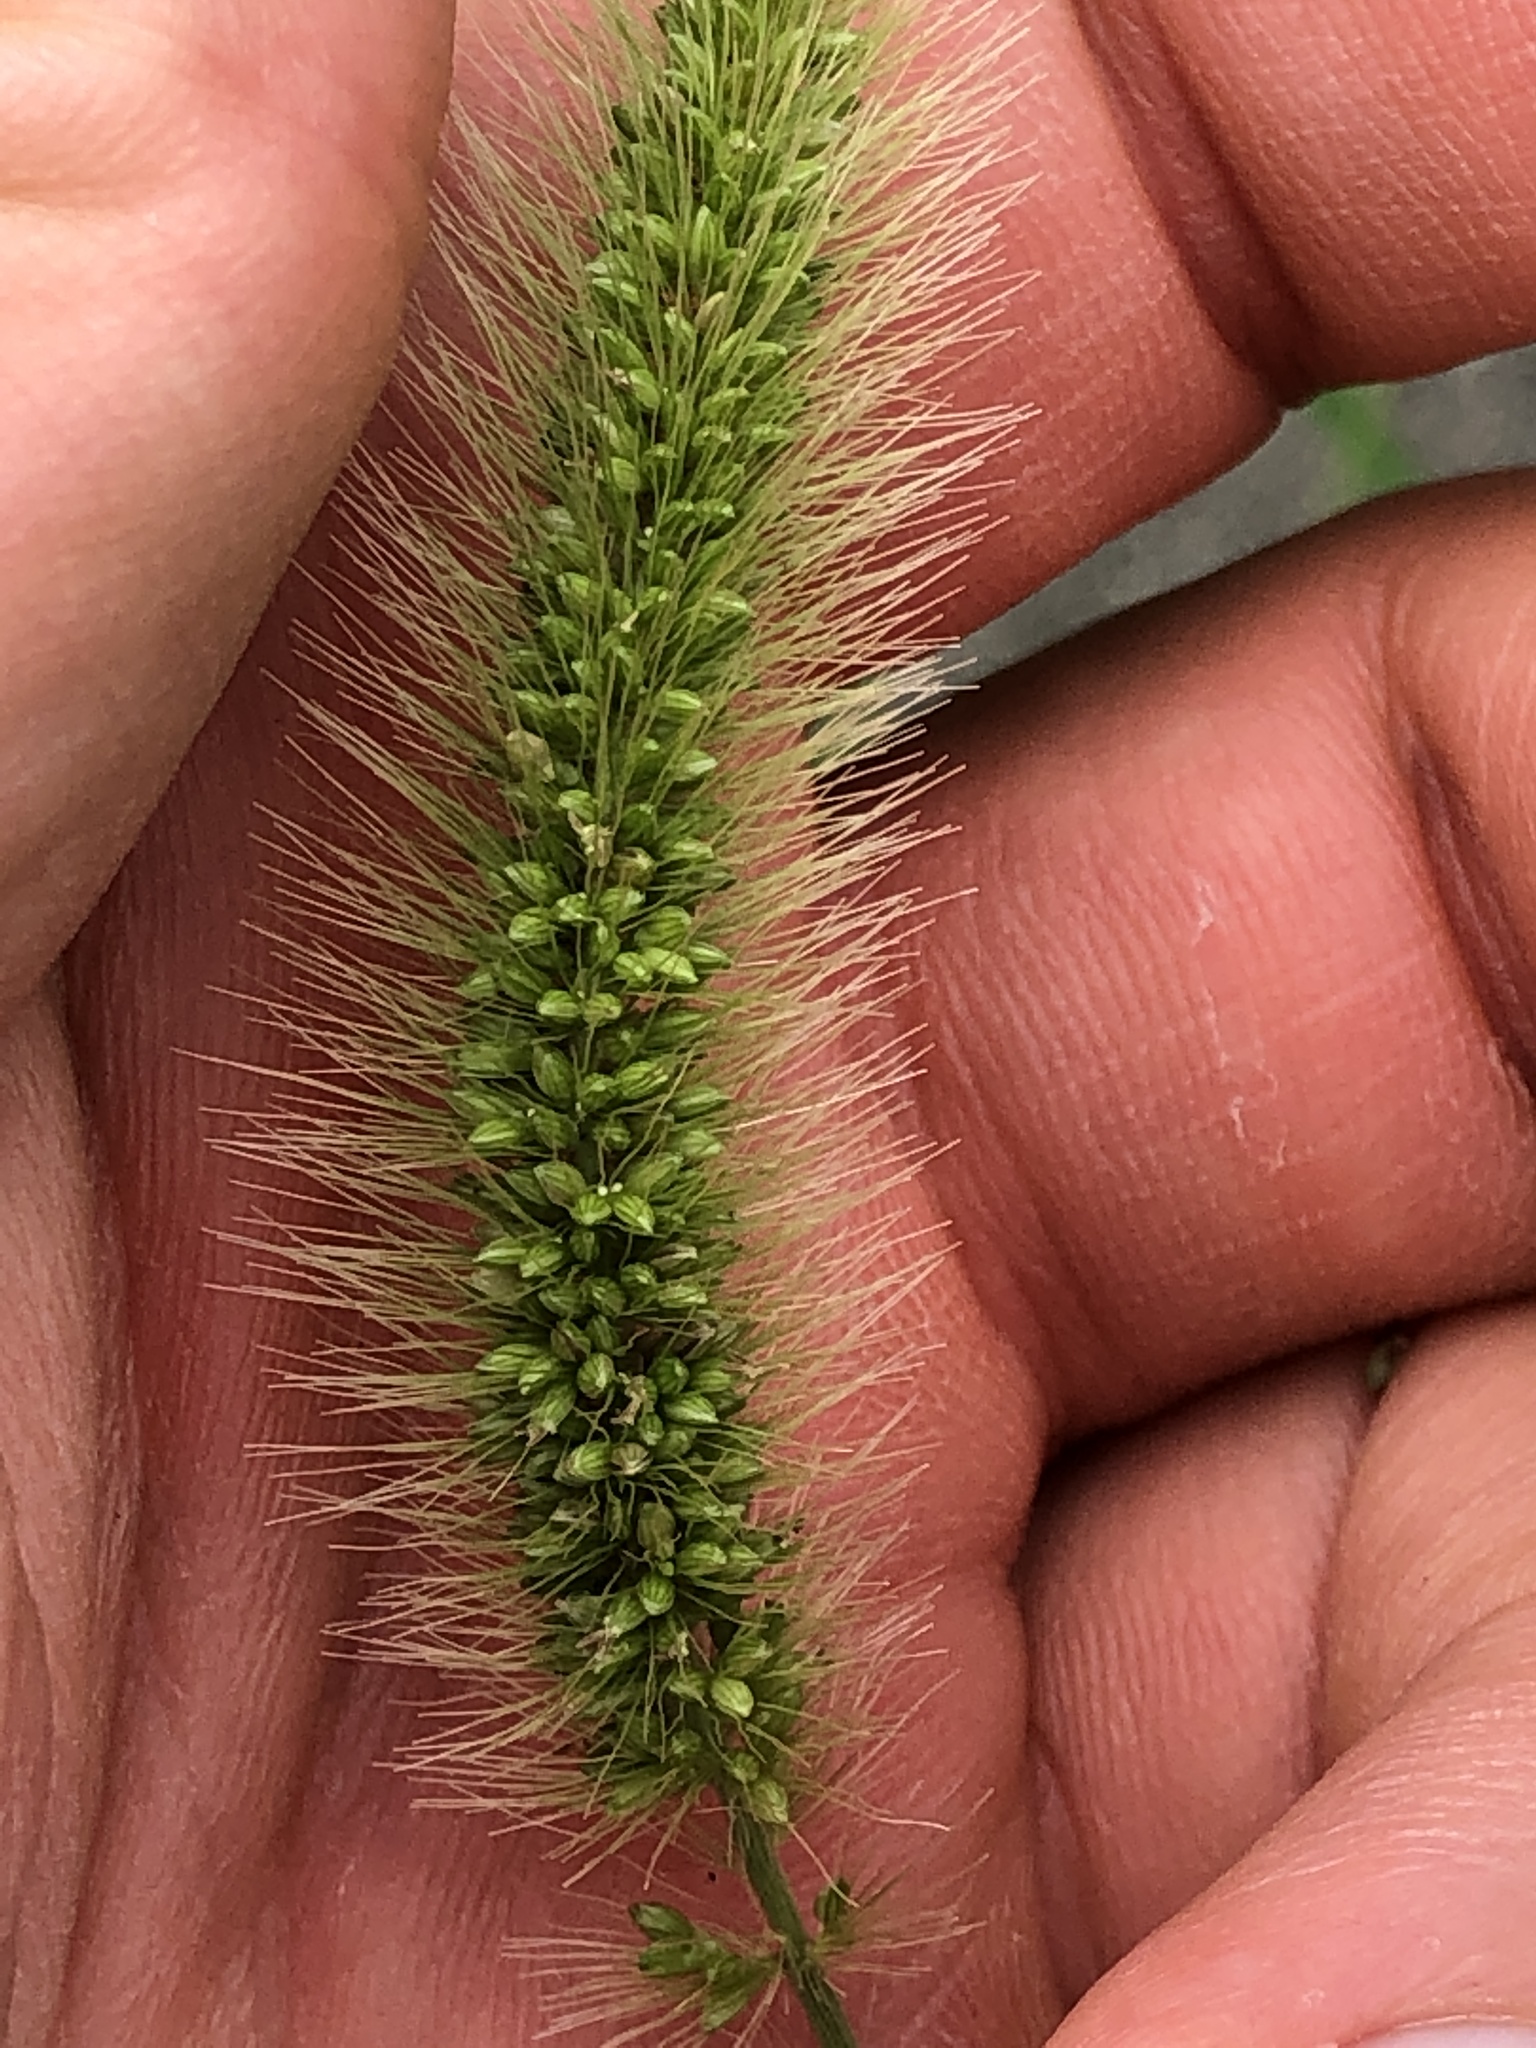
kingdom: Plantae
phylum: Tracheophyta
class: Liliopsida
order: Poales
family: Poaceae
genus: Setaria
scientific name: Setaria viridis
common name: Green bristlegrass
